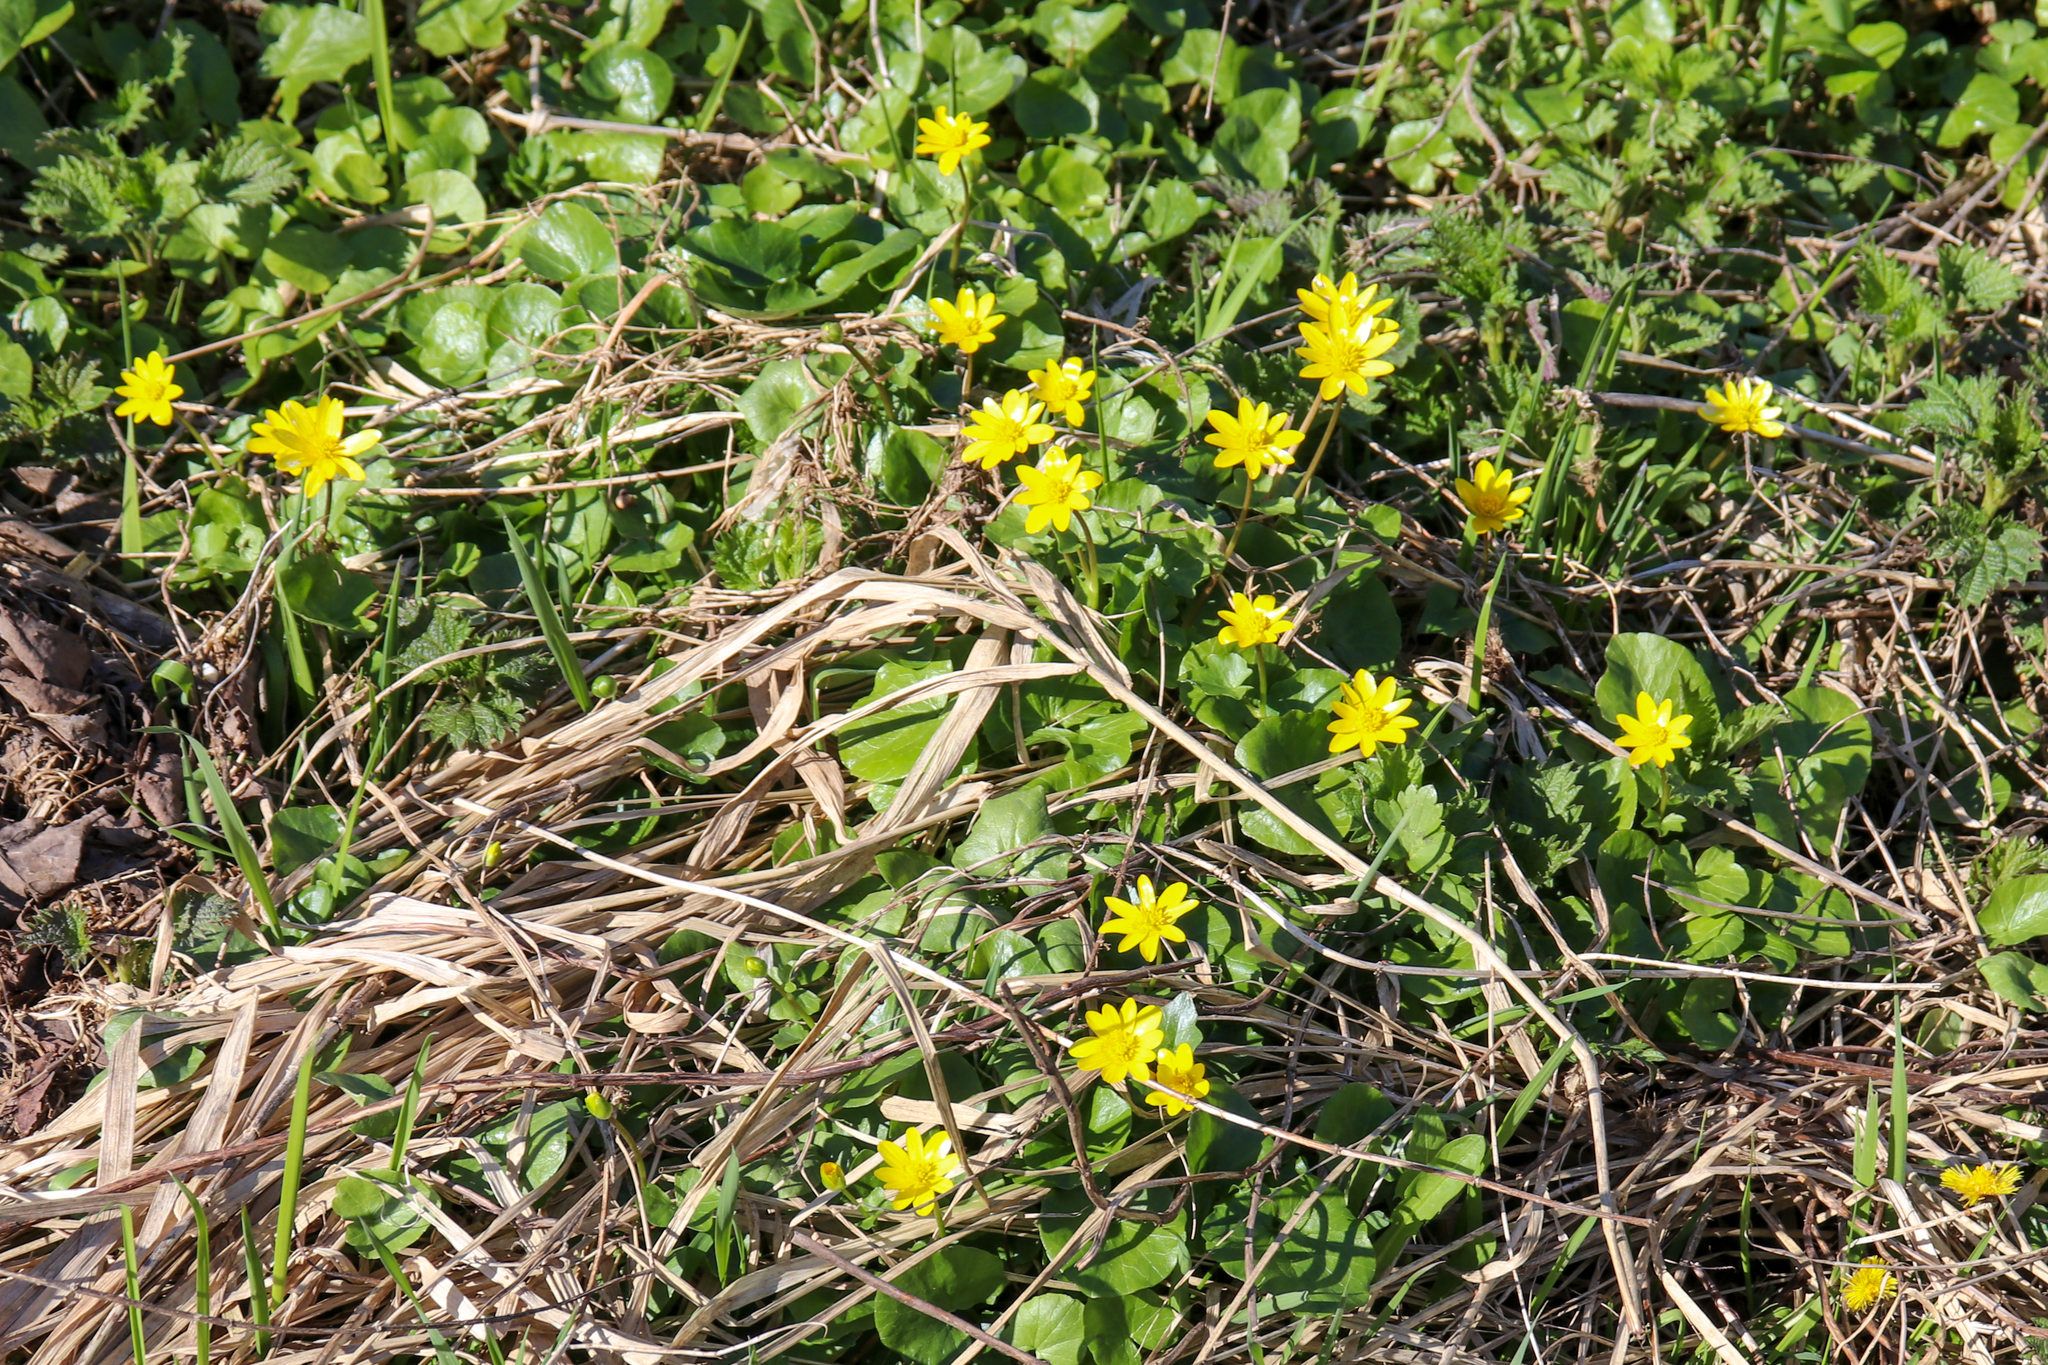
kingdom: Plantae
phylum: Tracheophyta
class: Magnoliopsida
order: Ranunculales
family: Ranunculaceae
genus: Ficaria
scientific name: Ficaria verna
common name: Lesser celandine
